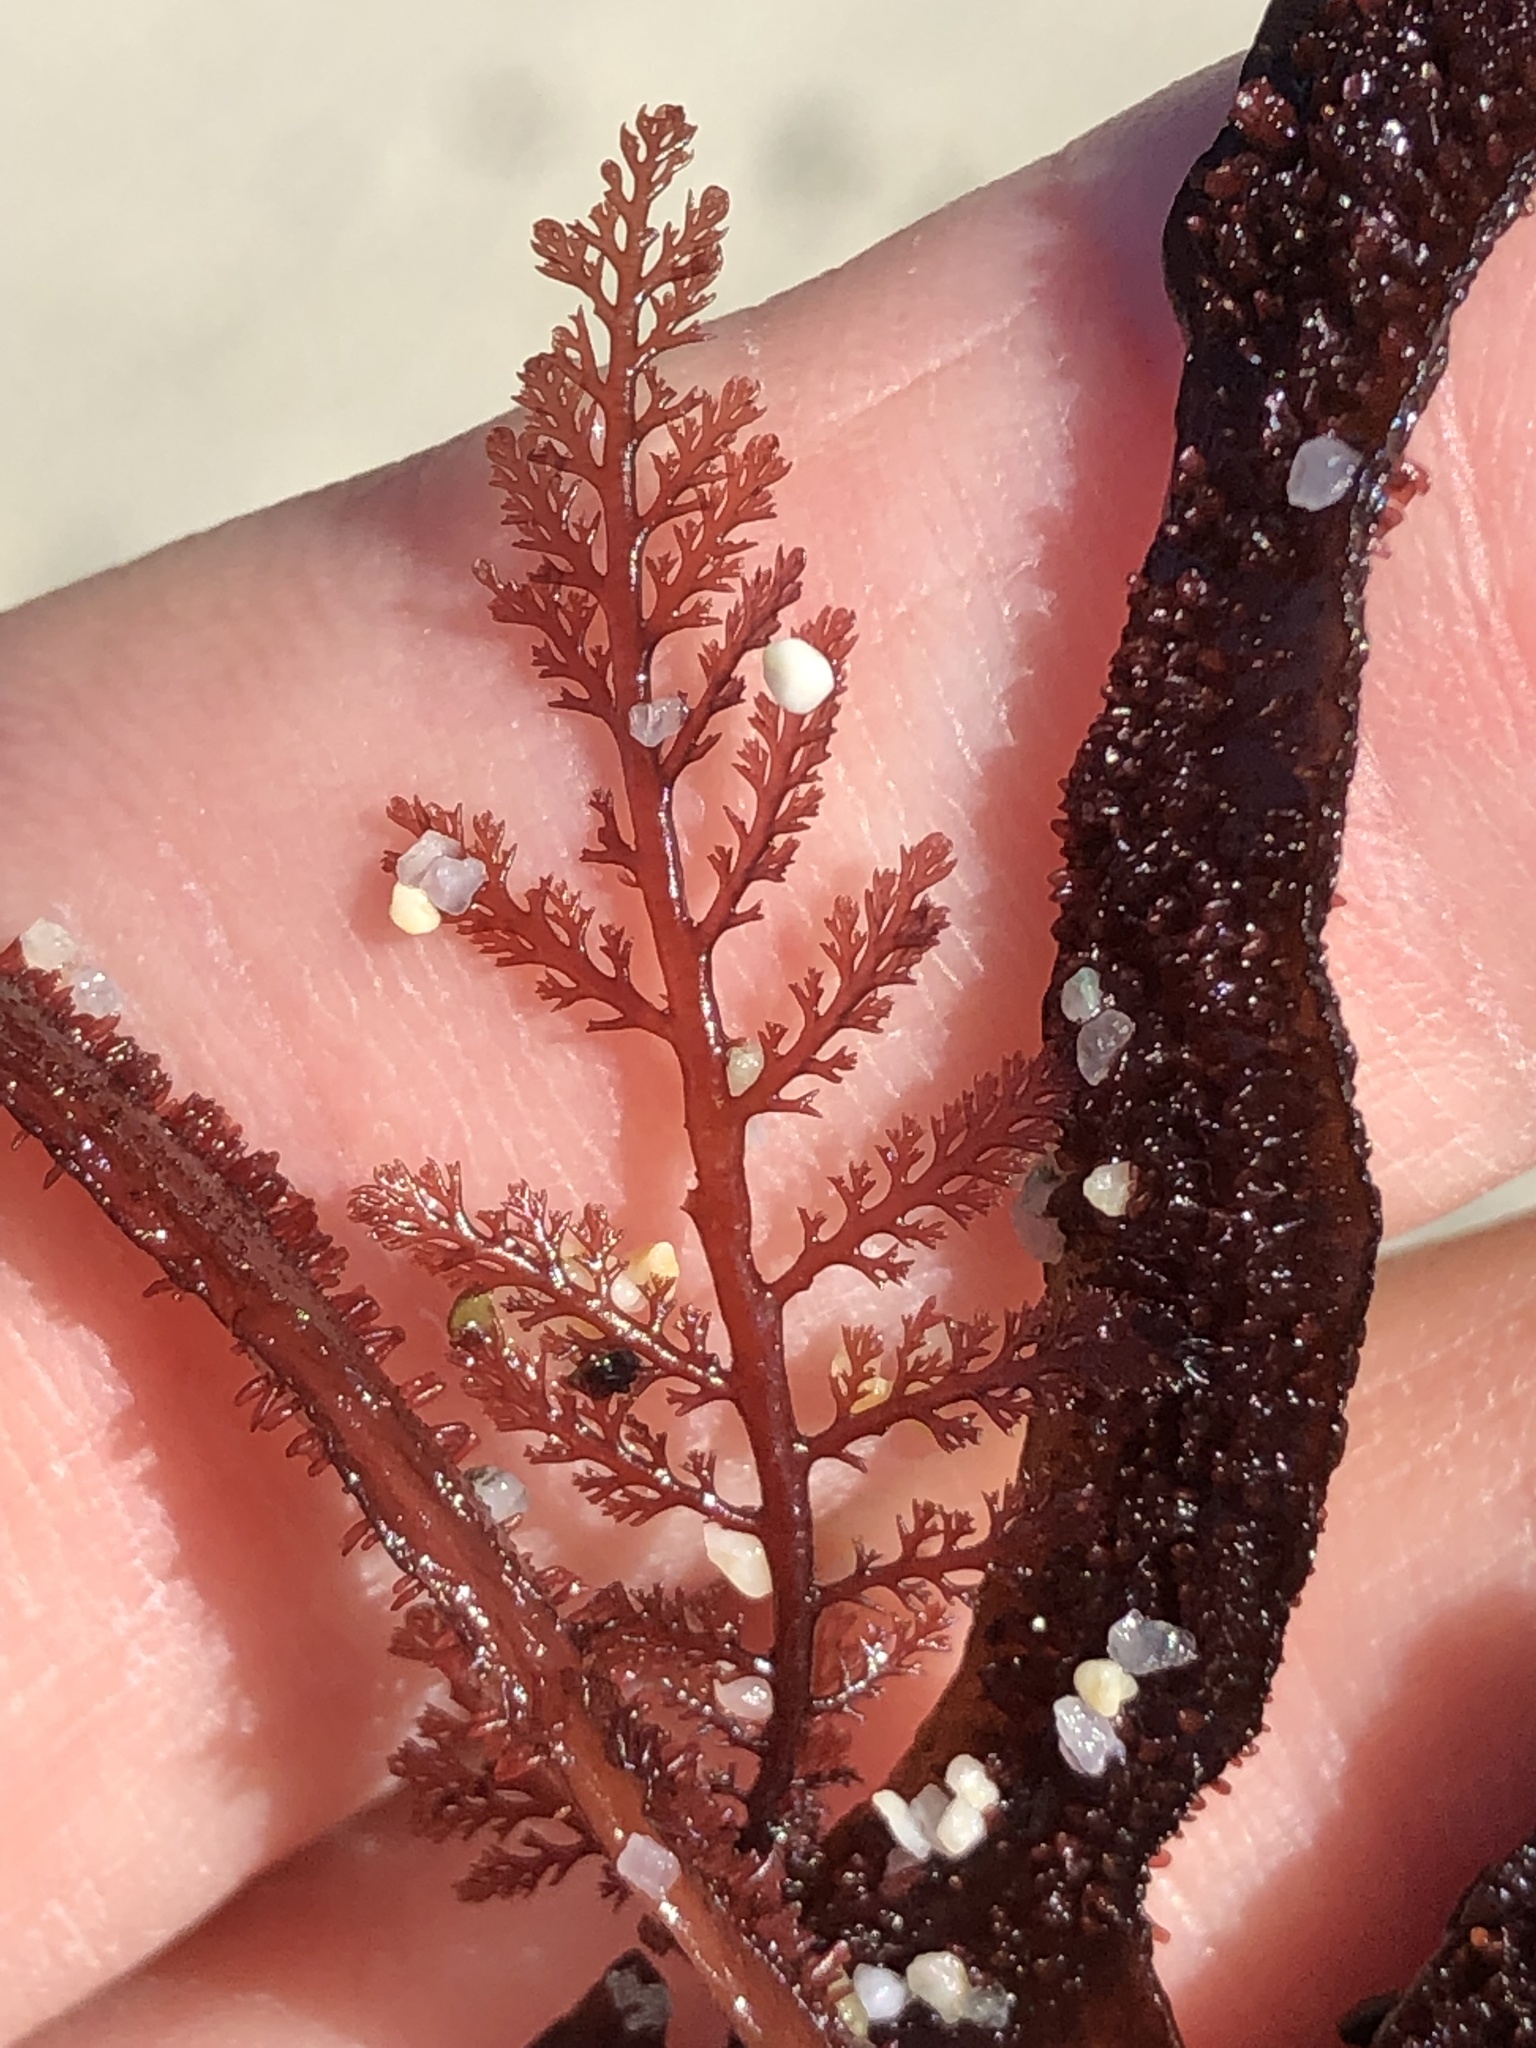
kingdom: Plantae
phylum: Rhodophyta
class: Florideophyceae
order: Ceramiales
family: Ceramiaceae
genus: Microcladia
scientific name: Microcladia coulteri
